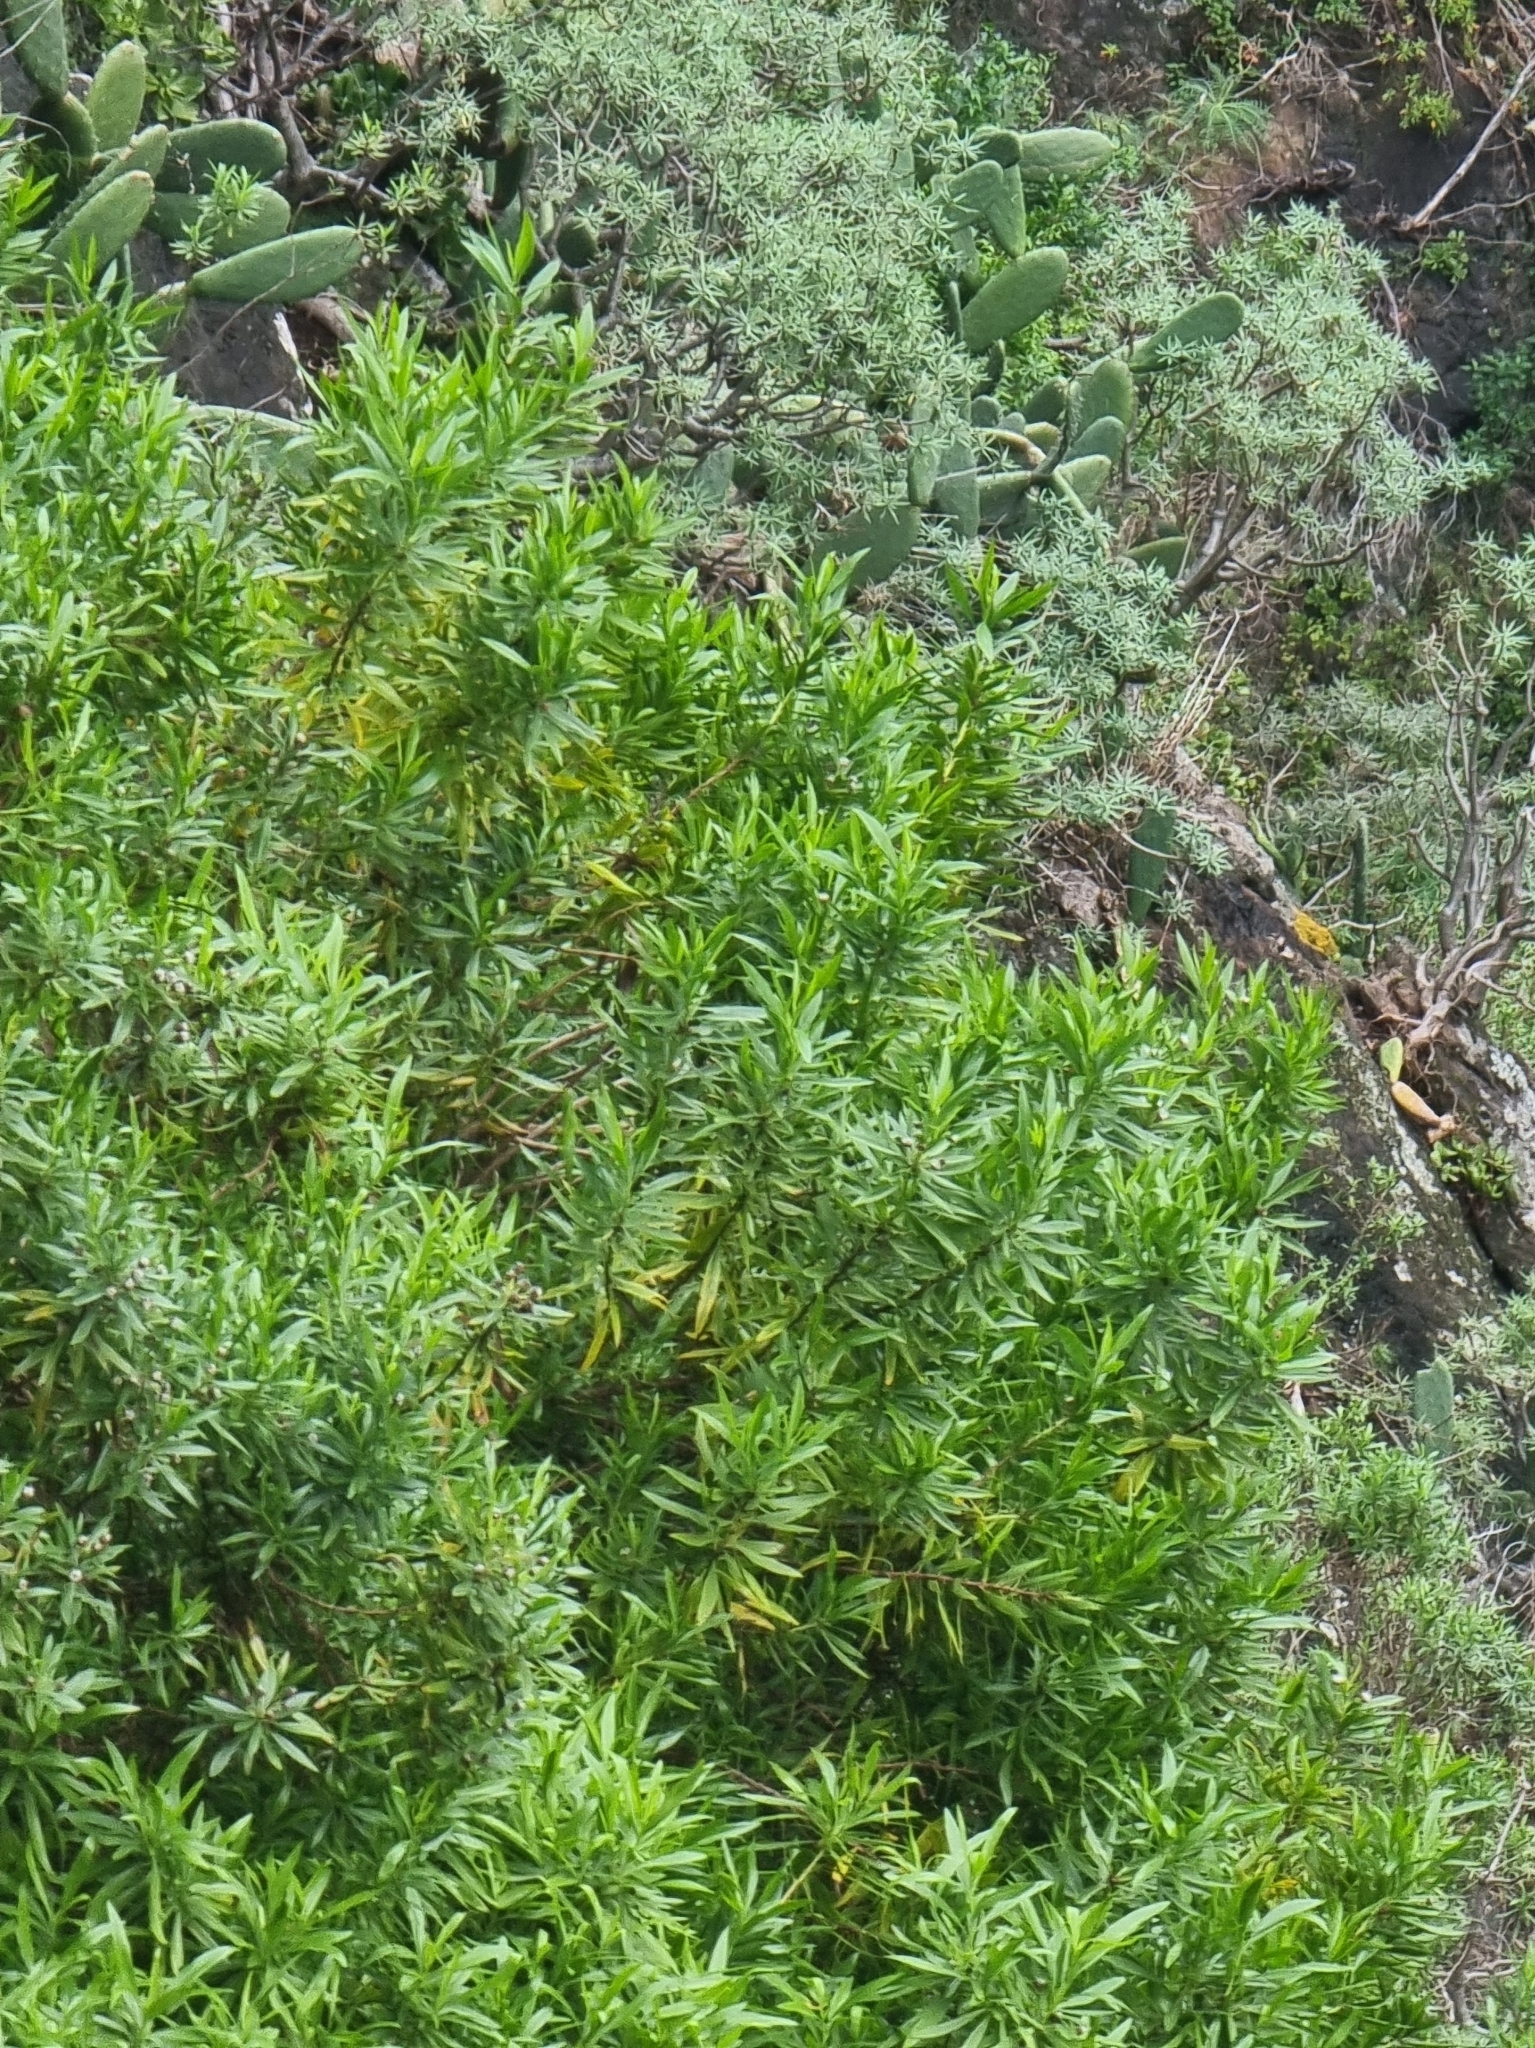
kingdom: Plantae
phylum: Tracheophyta
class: Magnoliopsida
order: Lamiales
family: Plantaginaceae
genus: Globularia
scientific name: Globularia salicina
